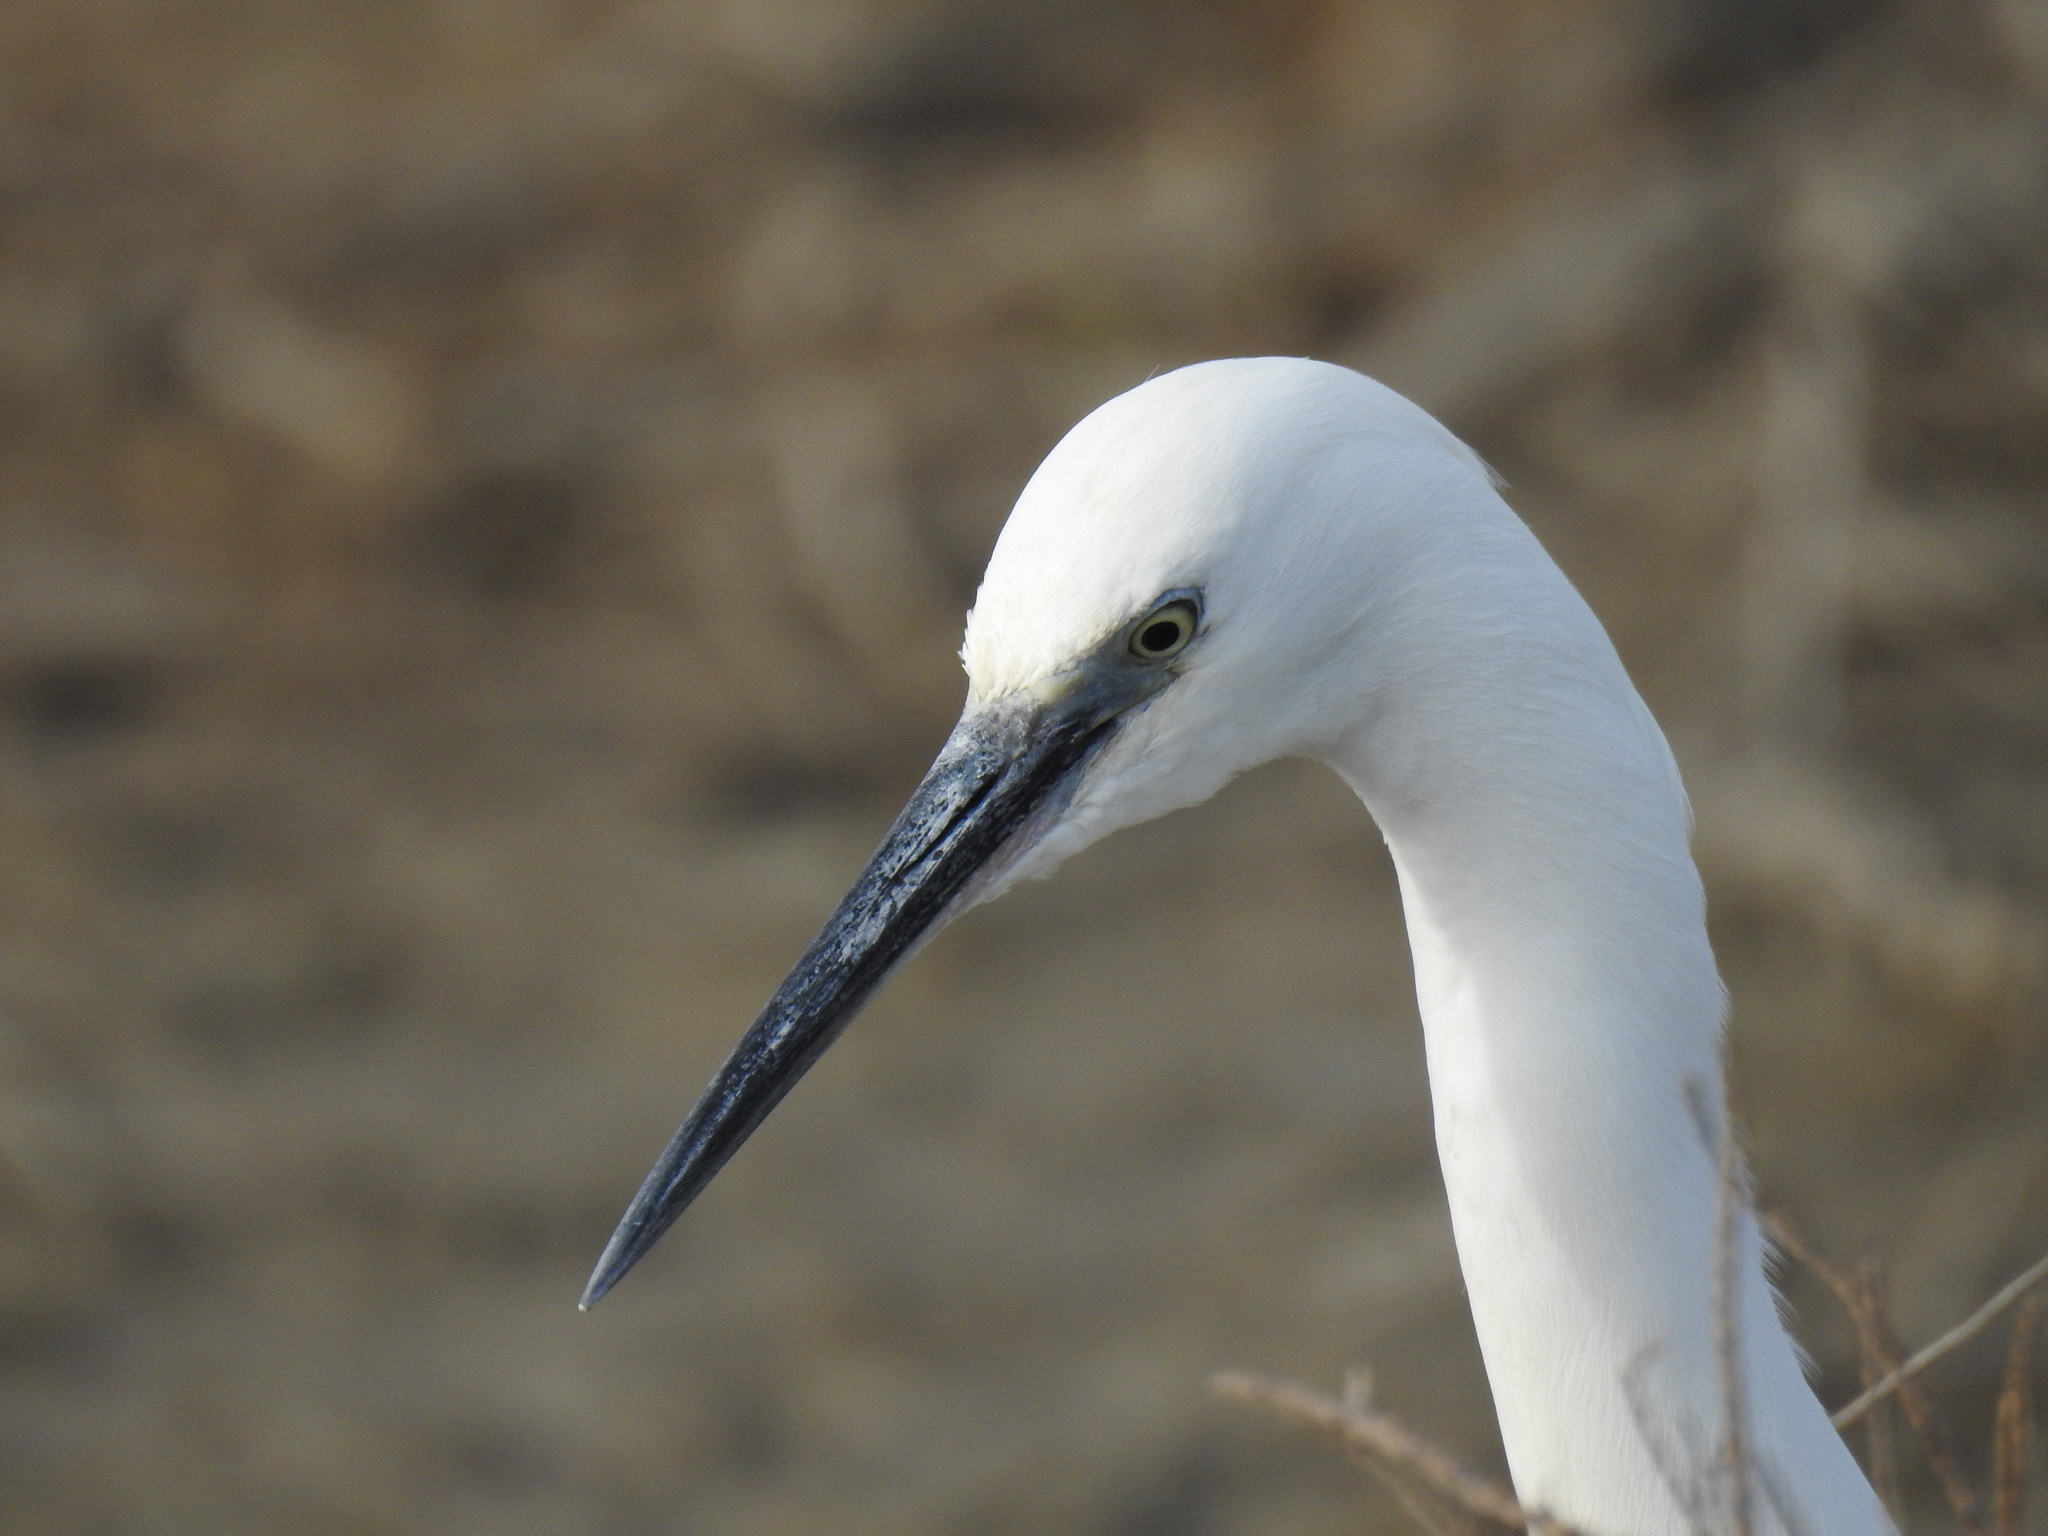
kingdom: Animalia
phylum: Chordata
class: Aves
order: Pelecaniformes
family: Ardeidae
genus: Egretta
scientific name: Egretta garzetta
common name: Little egret
